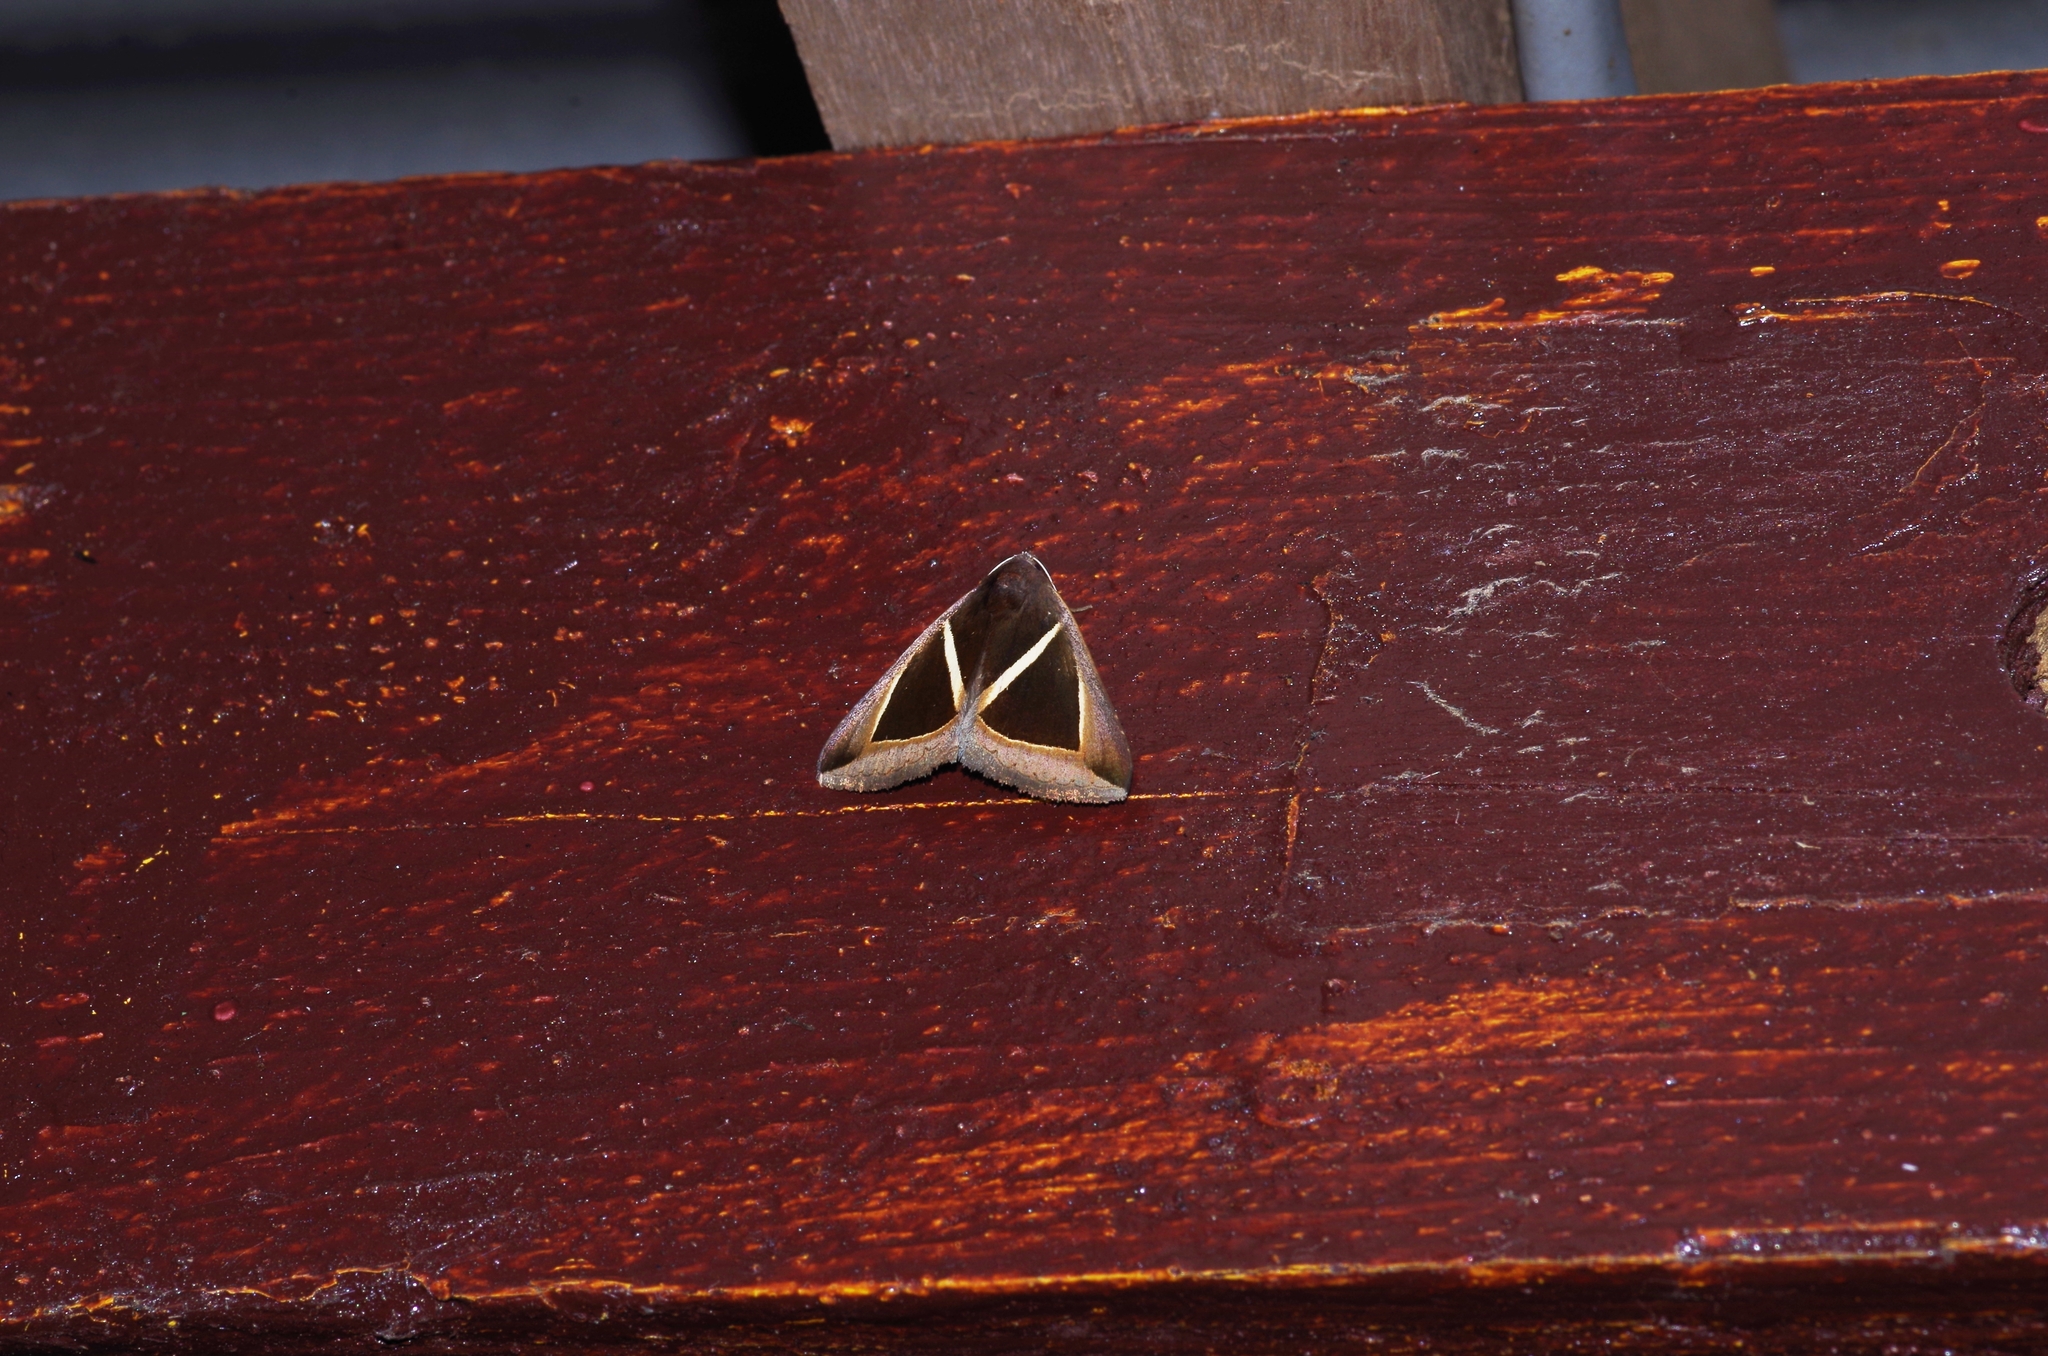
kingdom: Animalia
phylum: Arthropoda
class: Insecta
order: Lepidoptera
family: Erebidae
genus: Chalciope
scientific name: Chalciope mygdon
